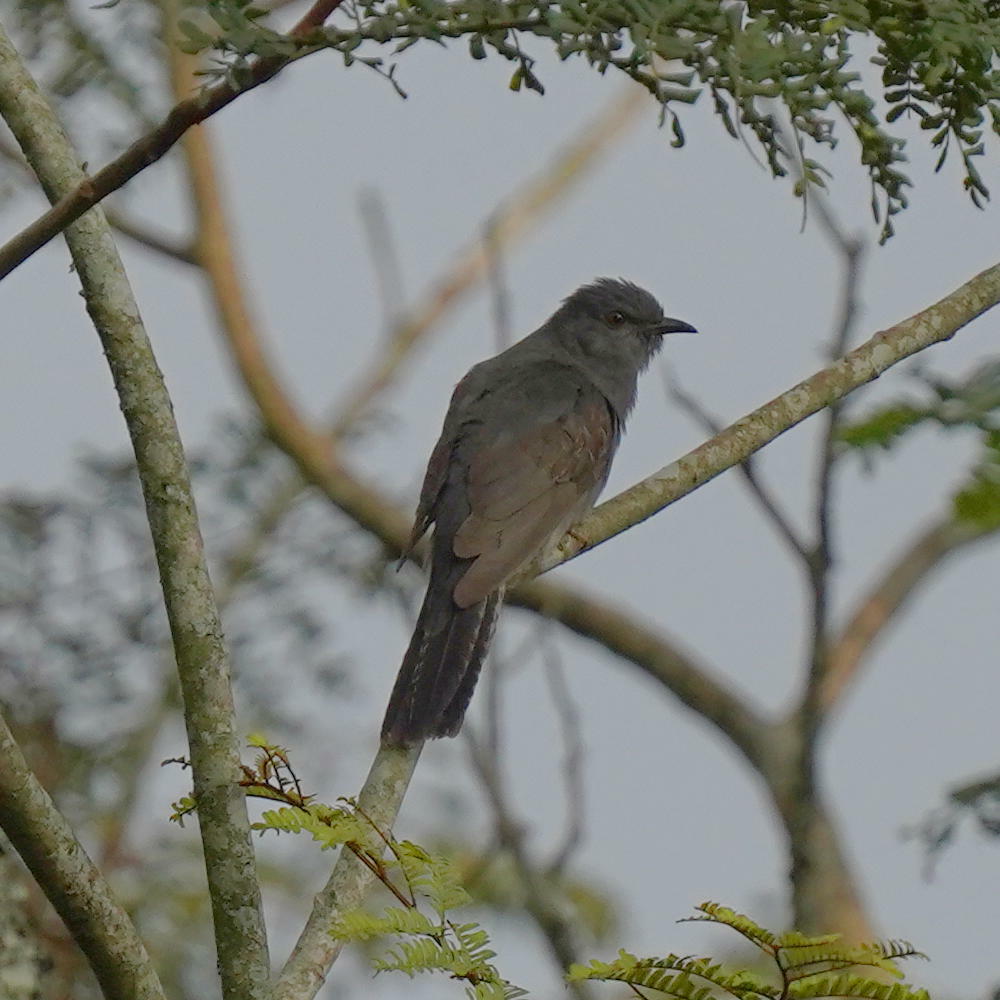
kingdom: Animalia
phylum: Chordata
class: Aves
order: Cuculiformes
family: Cuculidae
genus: Cacomantis
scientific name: Cacomantis passerinus
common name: Grey-bellied cuckoo
